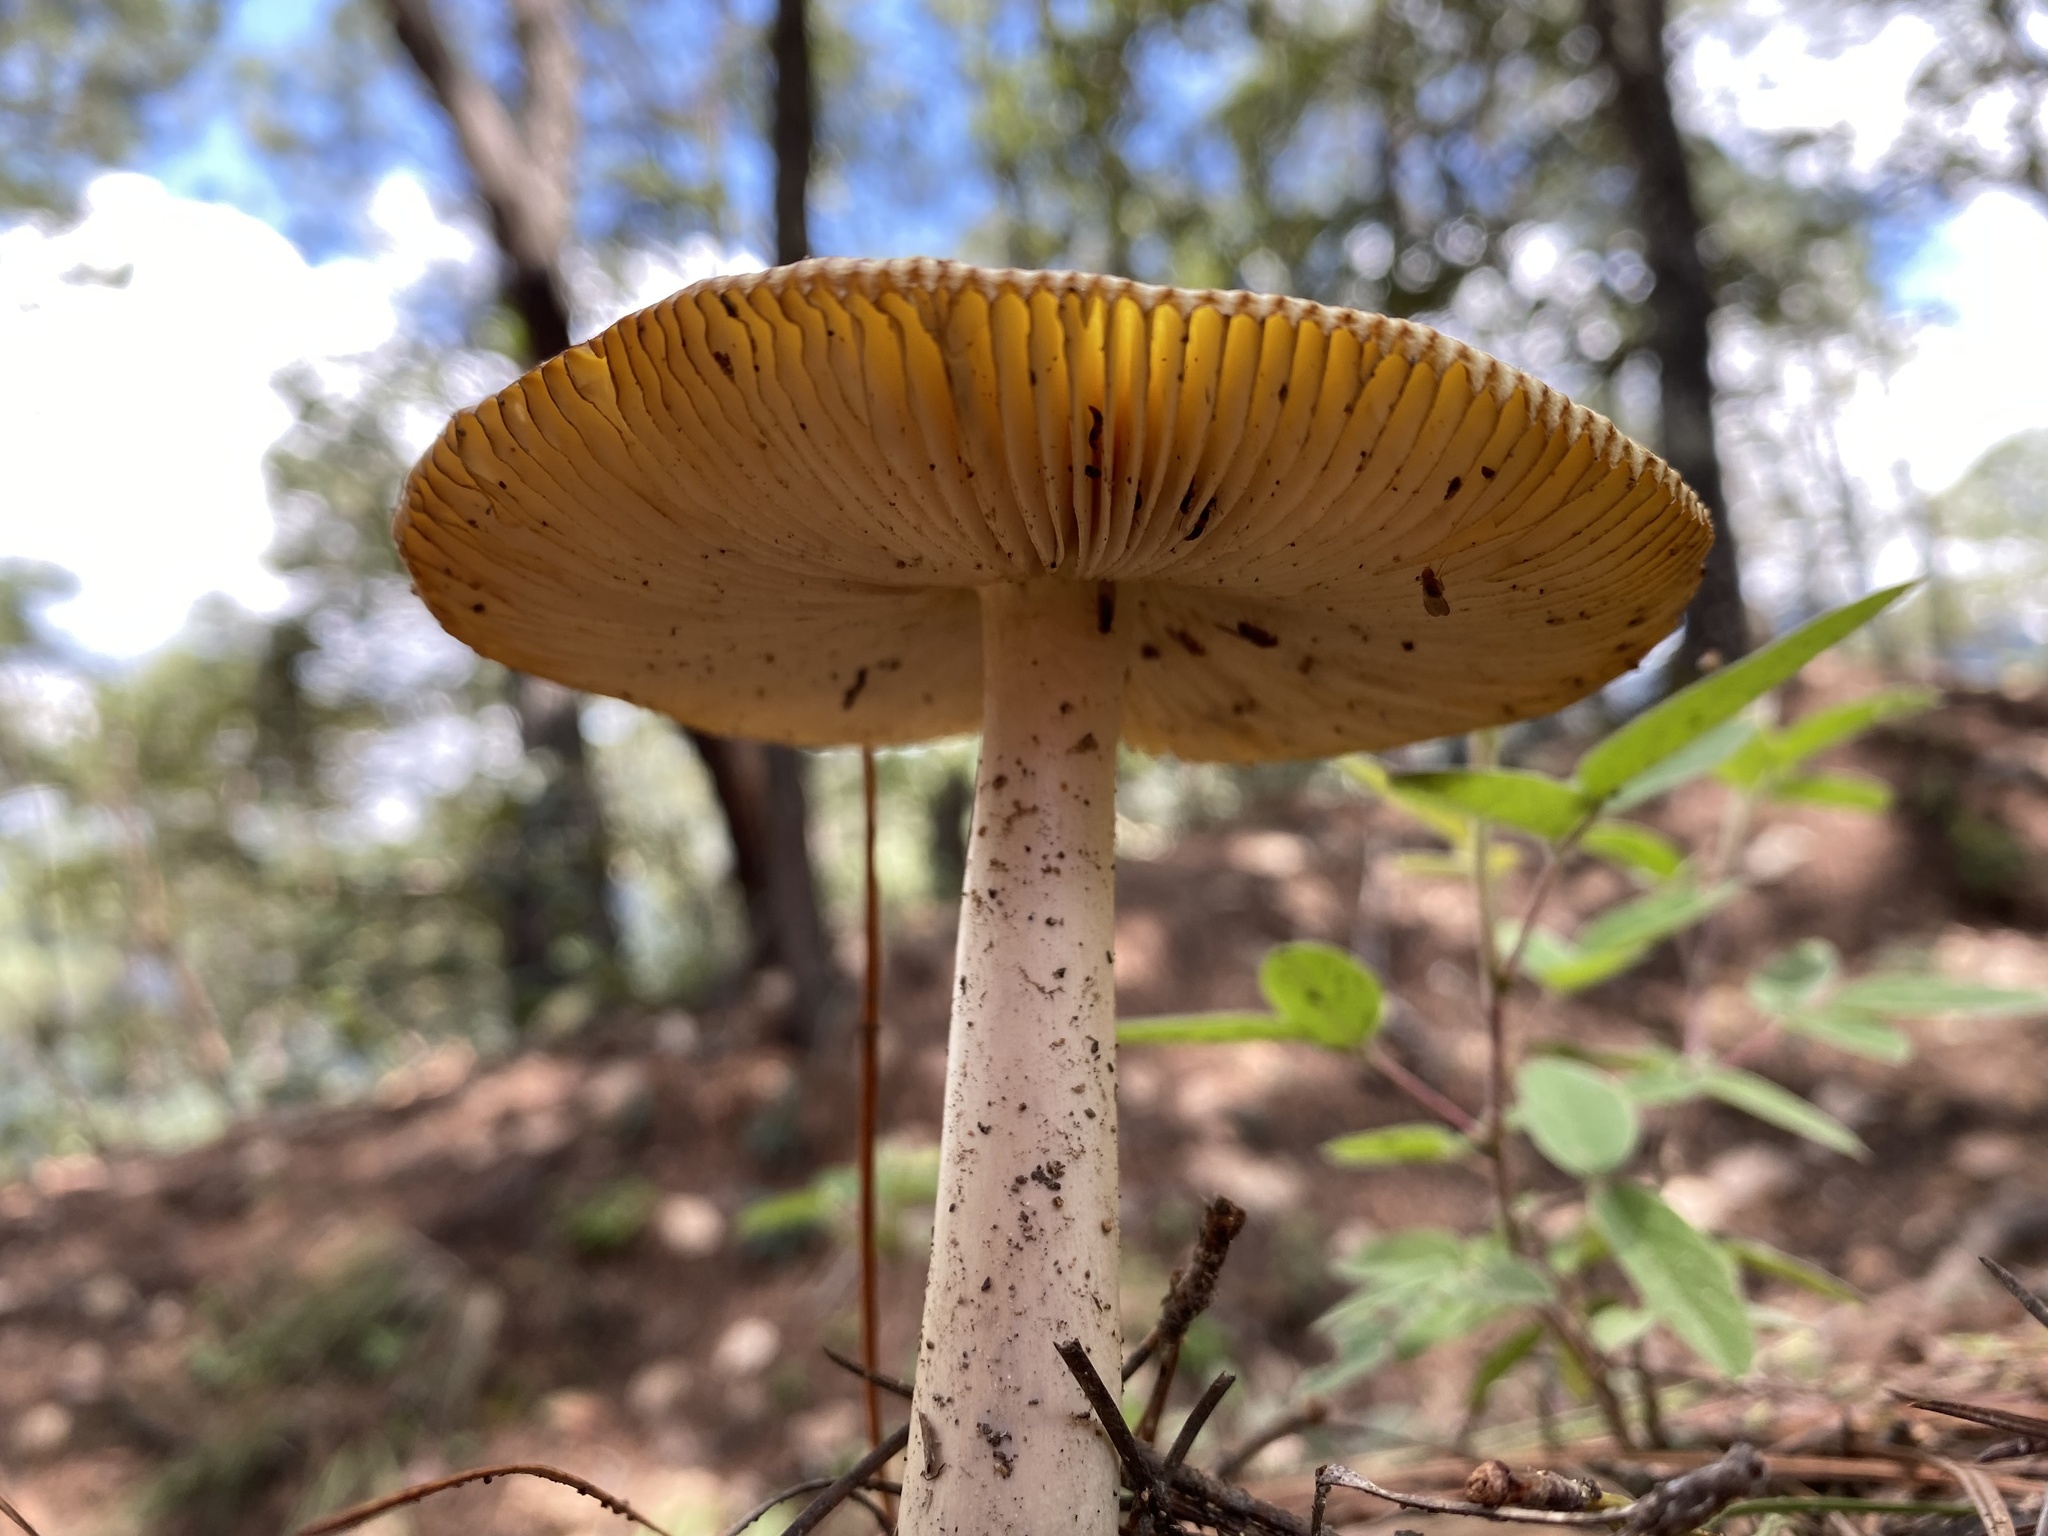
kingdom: Fungi
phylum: Basidiomycota
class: Agaricomycetes
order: Agaricales
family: Amanitaceae
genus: Amanita
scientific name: Amanita
